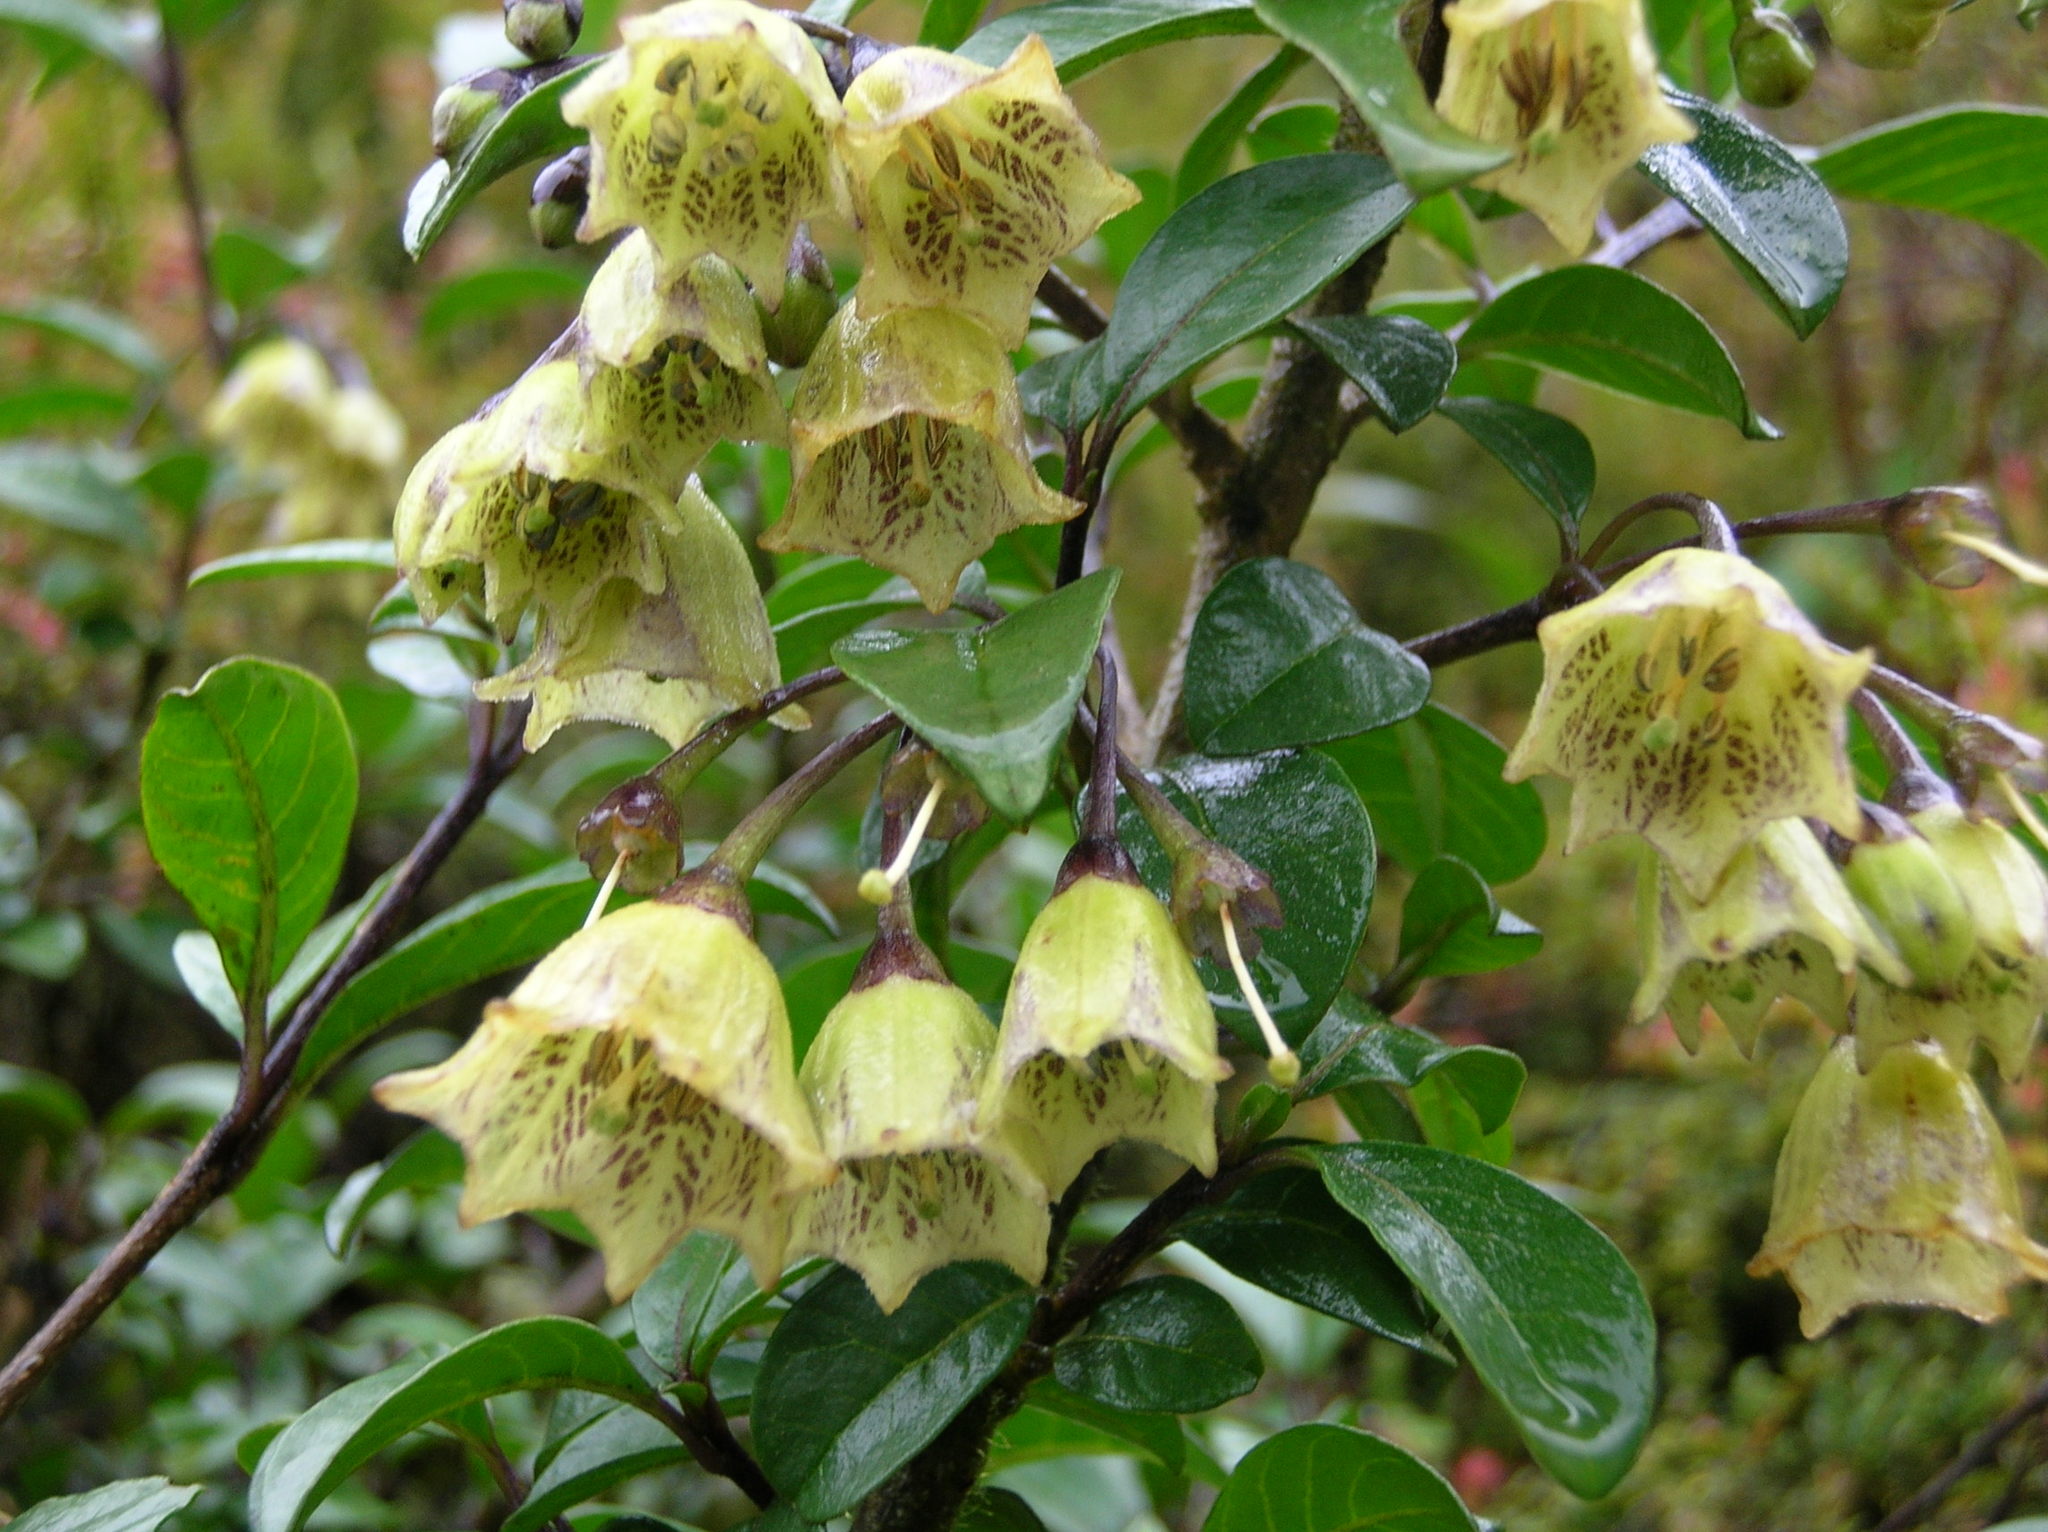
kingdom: Plantae
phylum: Tracheophyta
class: Magnoliopsida
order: Solanales
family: Solanaceae
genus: Saracha
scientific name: Saracha punctata
